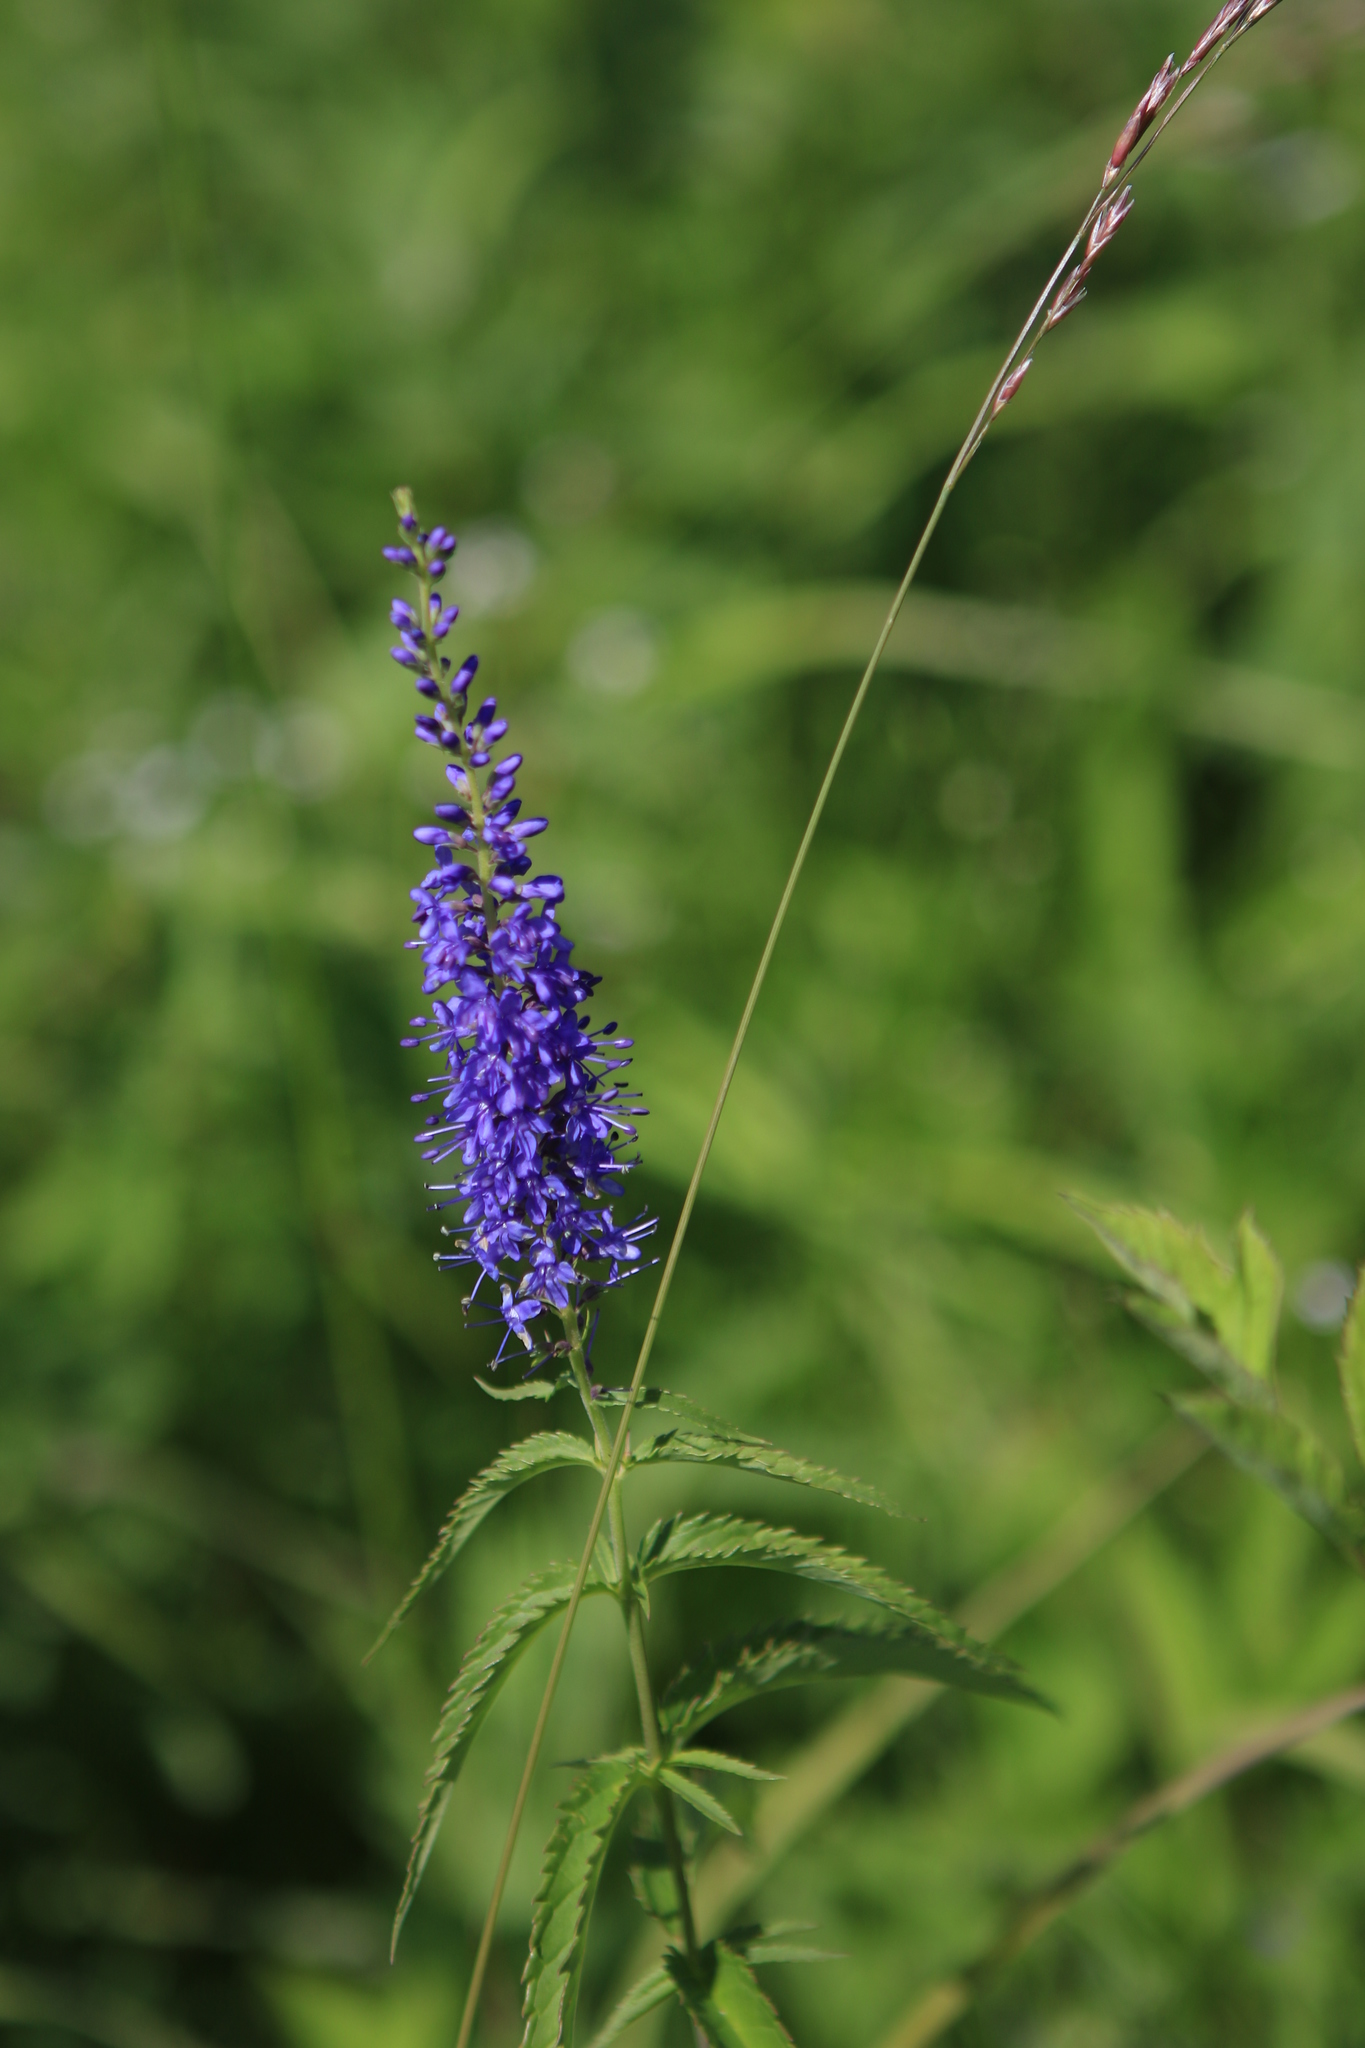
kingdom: Plantae
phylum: Tracheophyta
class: Magnoliopsida
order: Lamiales
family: Plantaginaceae
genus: Veronica
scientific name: Veronica longifolia
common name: Garden speedwell
